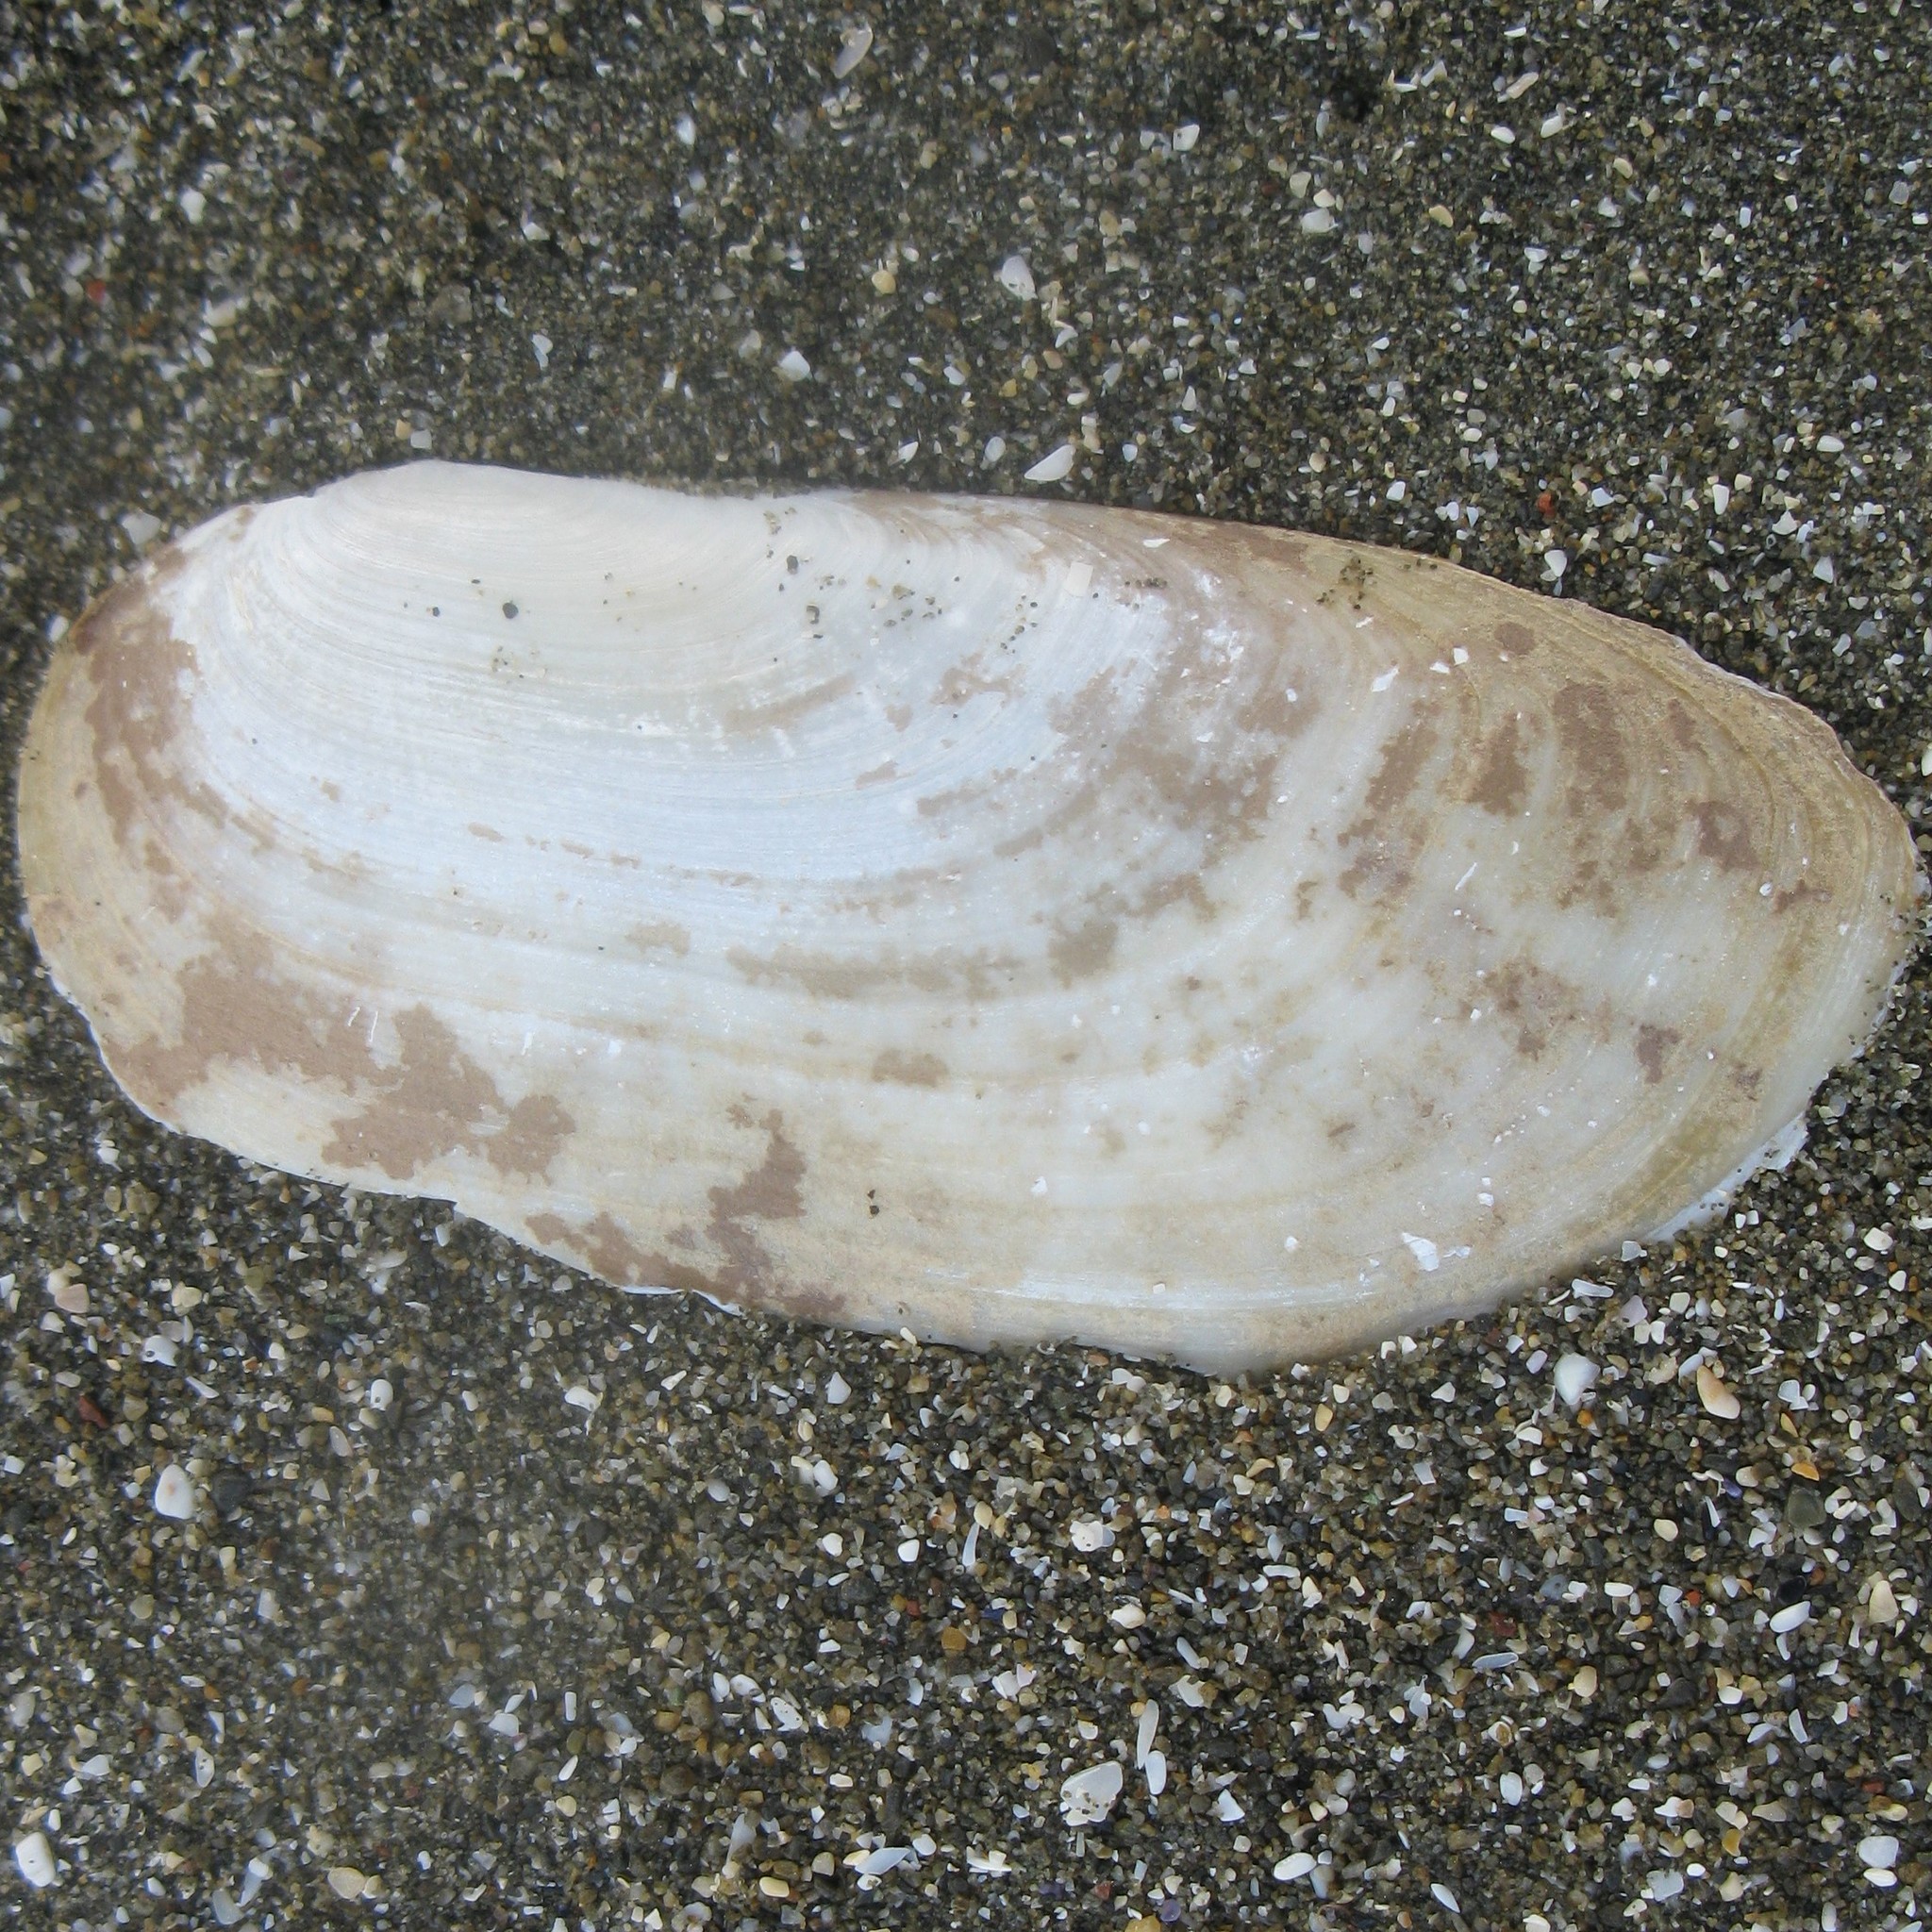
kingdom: Animalia
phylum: Mollusca
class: Bivalvia
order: Venerida
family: Mactridae
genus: Zenatia
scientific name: Zenatia acinaces
